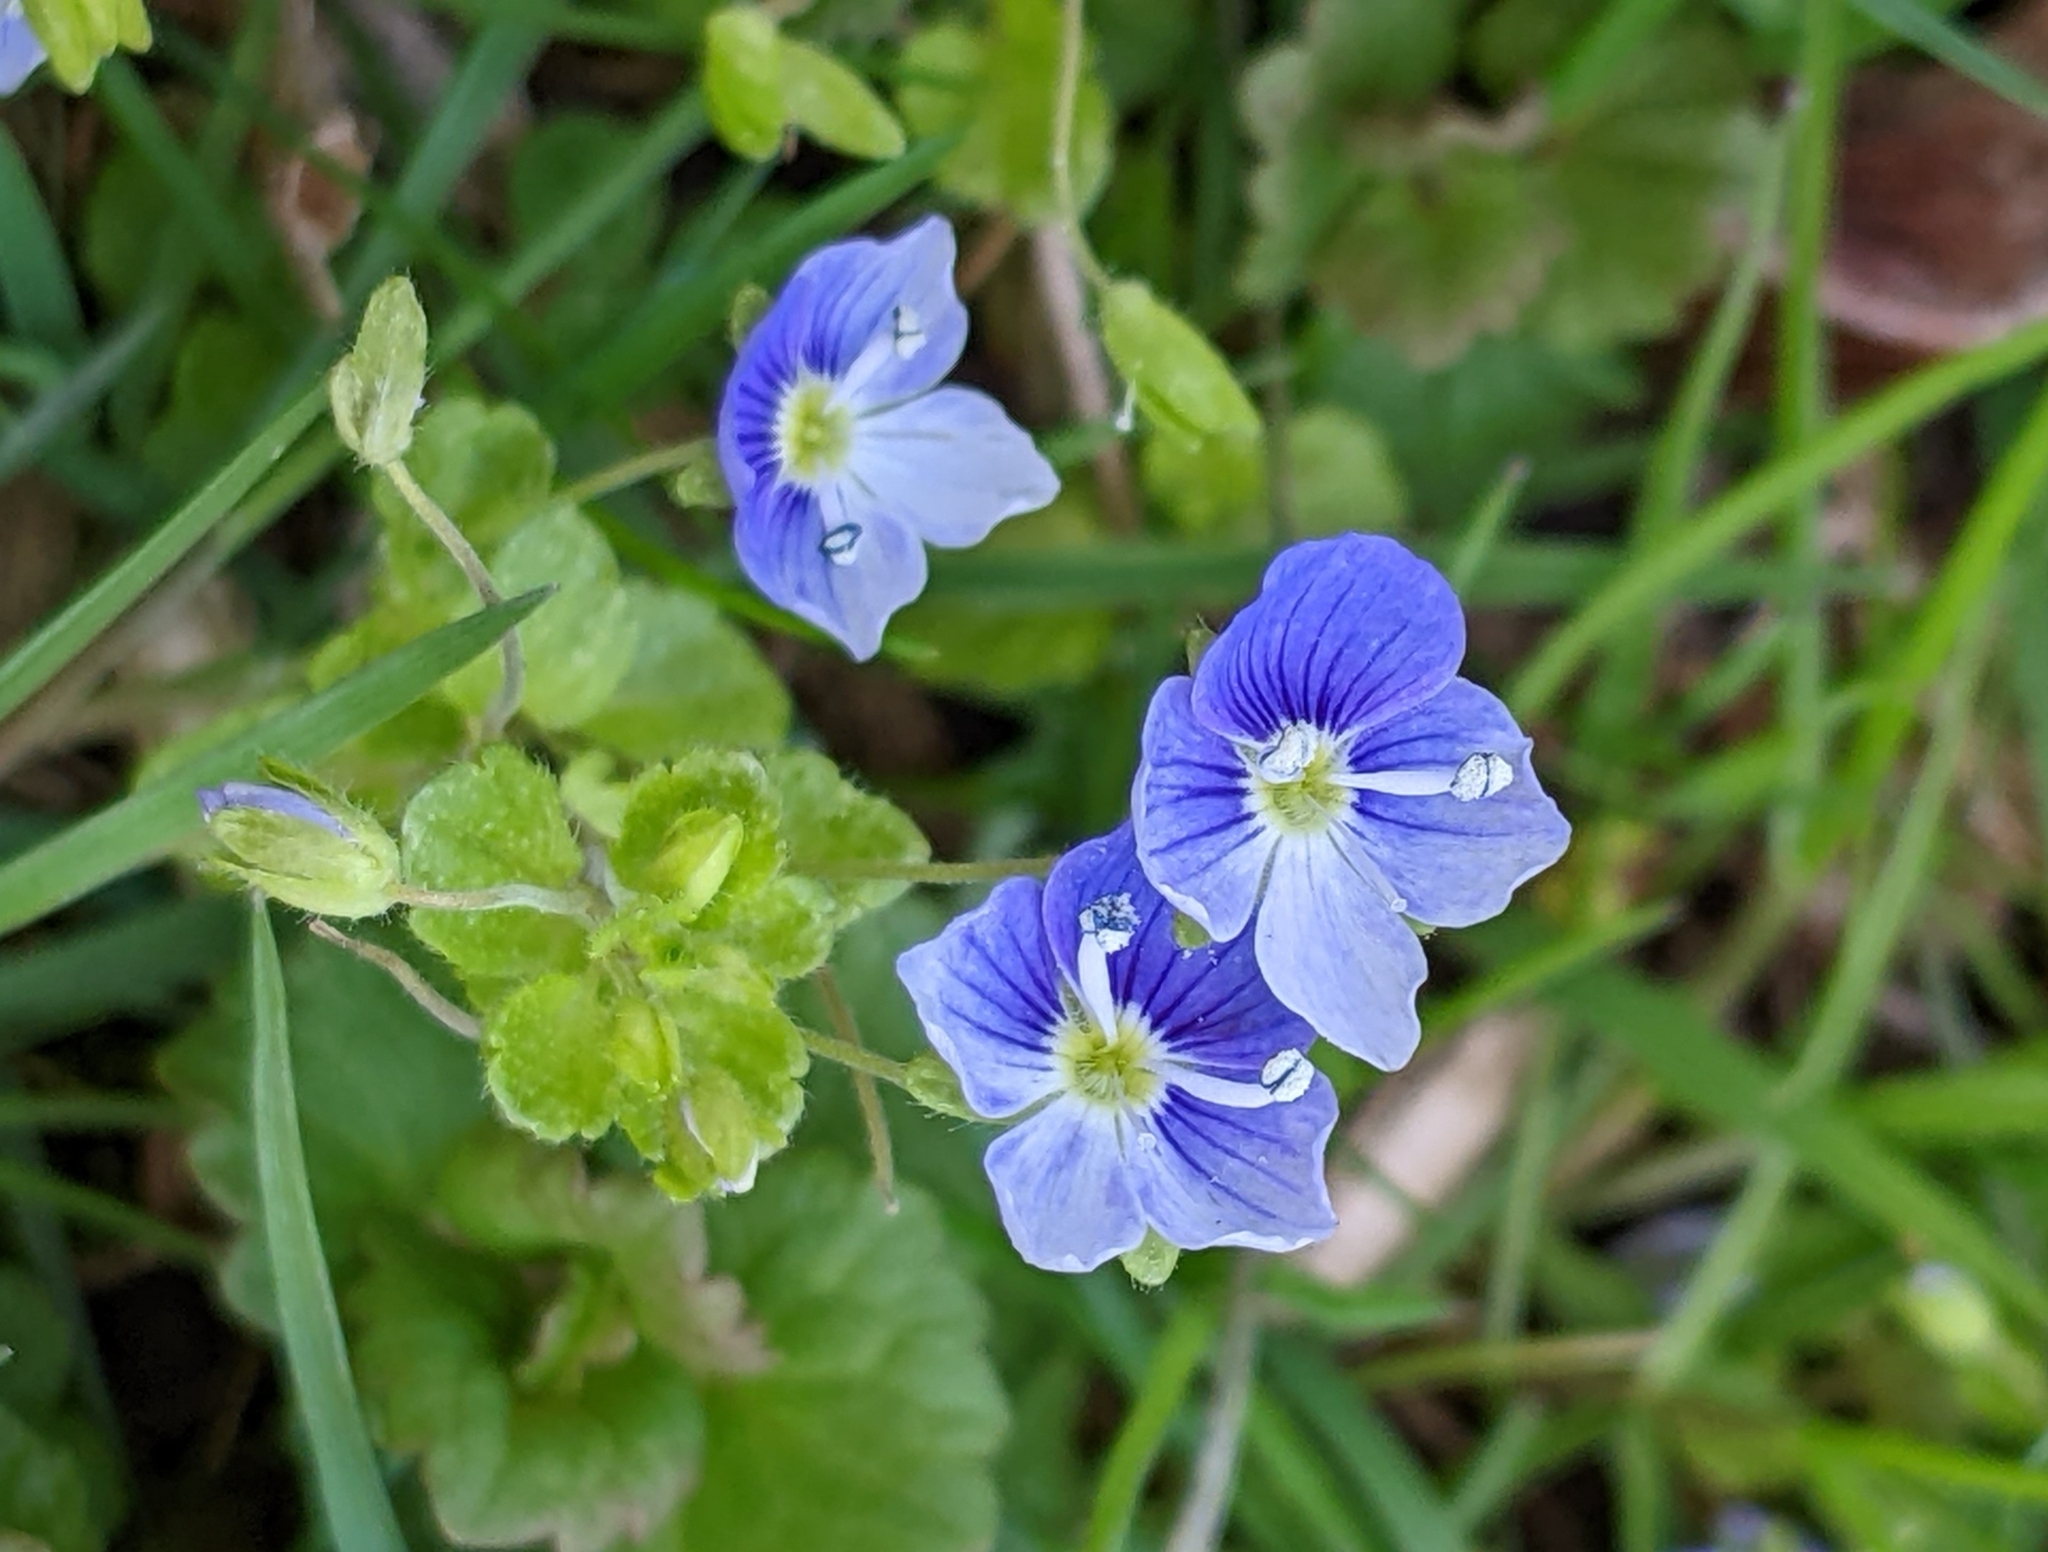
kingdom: Plantae
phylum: Tracheophyta
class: Magnoliopsida
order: Lamiales
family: Plantaginaceae
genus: Veronica
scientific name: Veronica filiformis
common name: Slender speedwell
